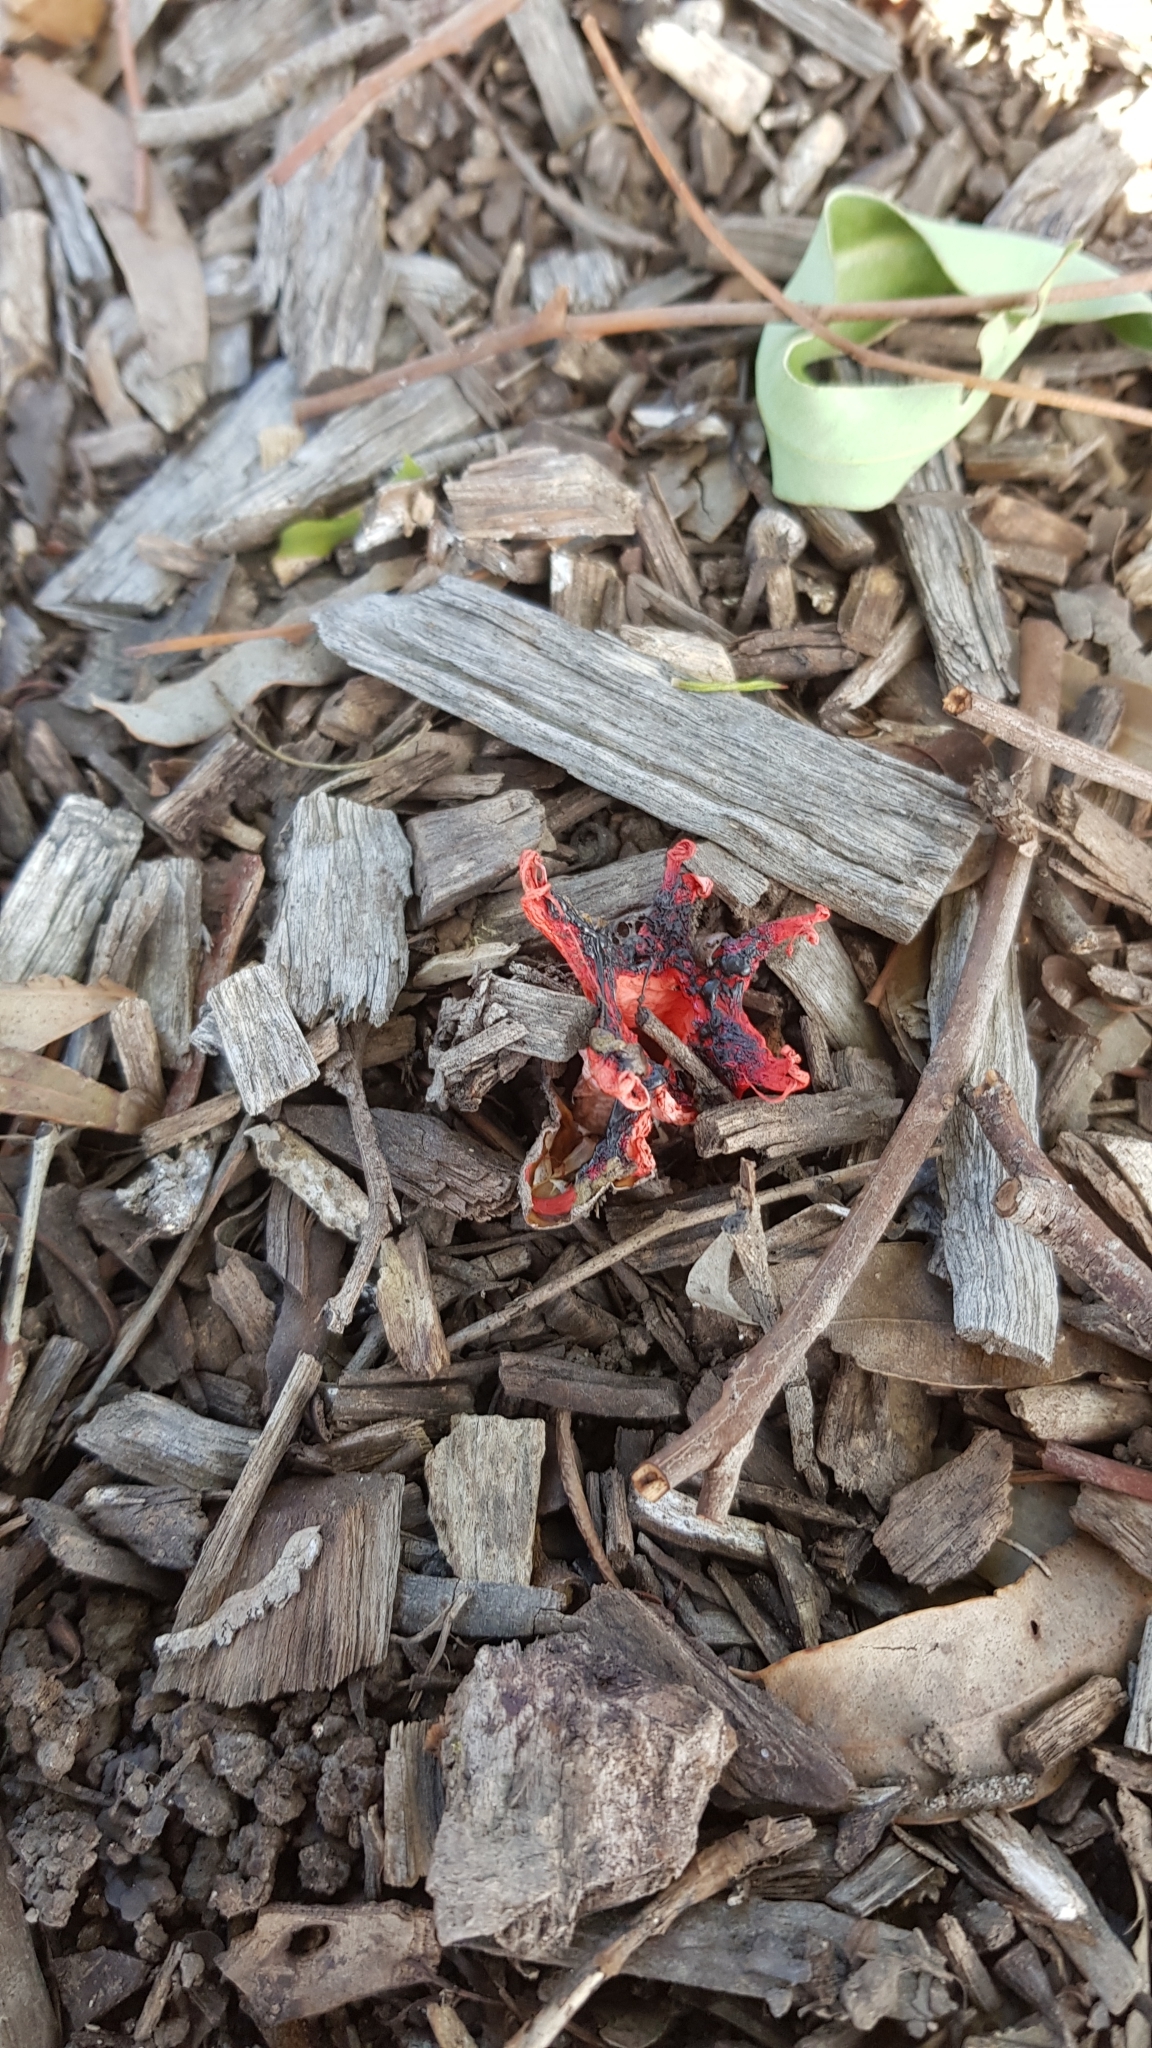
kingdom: Fungi
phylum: Basidiomycota
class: Agaricomycetes
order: Phallales
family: Phallaceae
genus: Aseroe
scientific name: Aseroe rubra
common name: Starfish fungus
